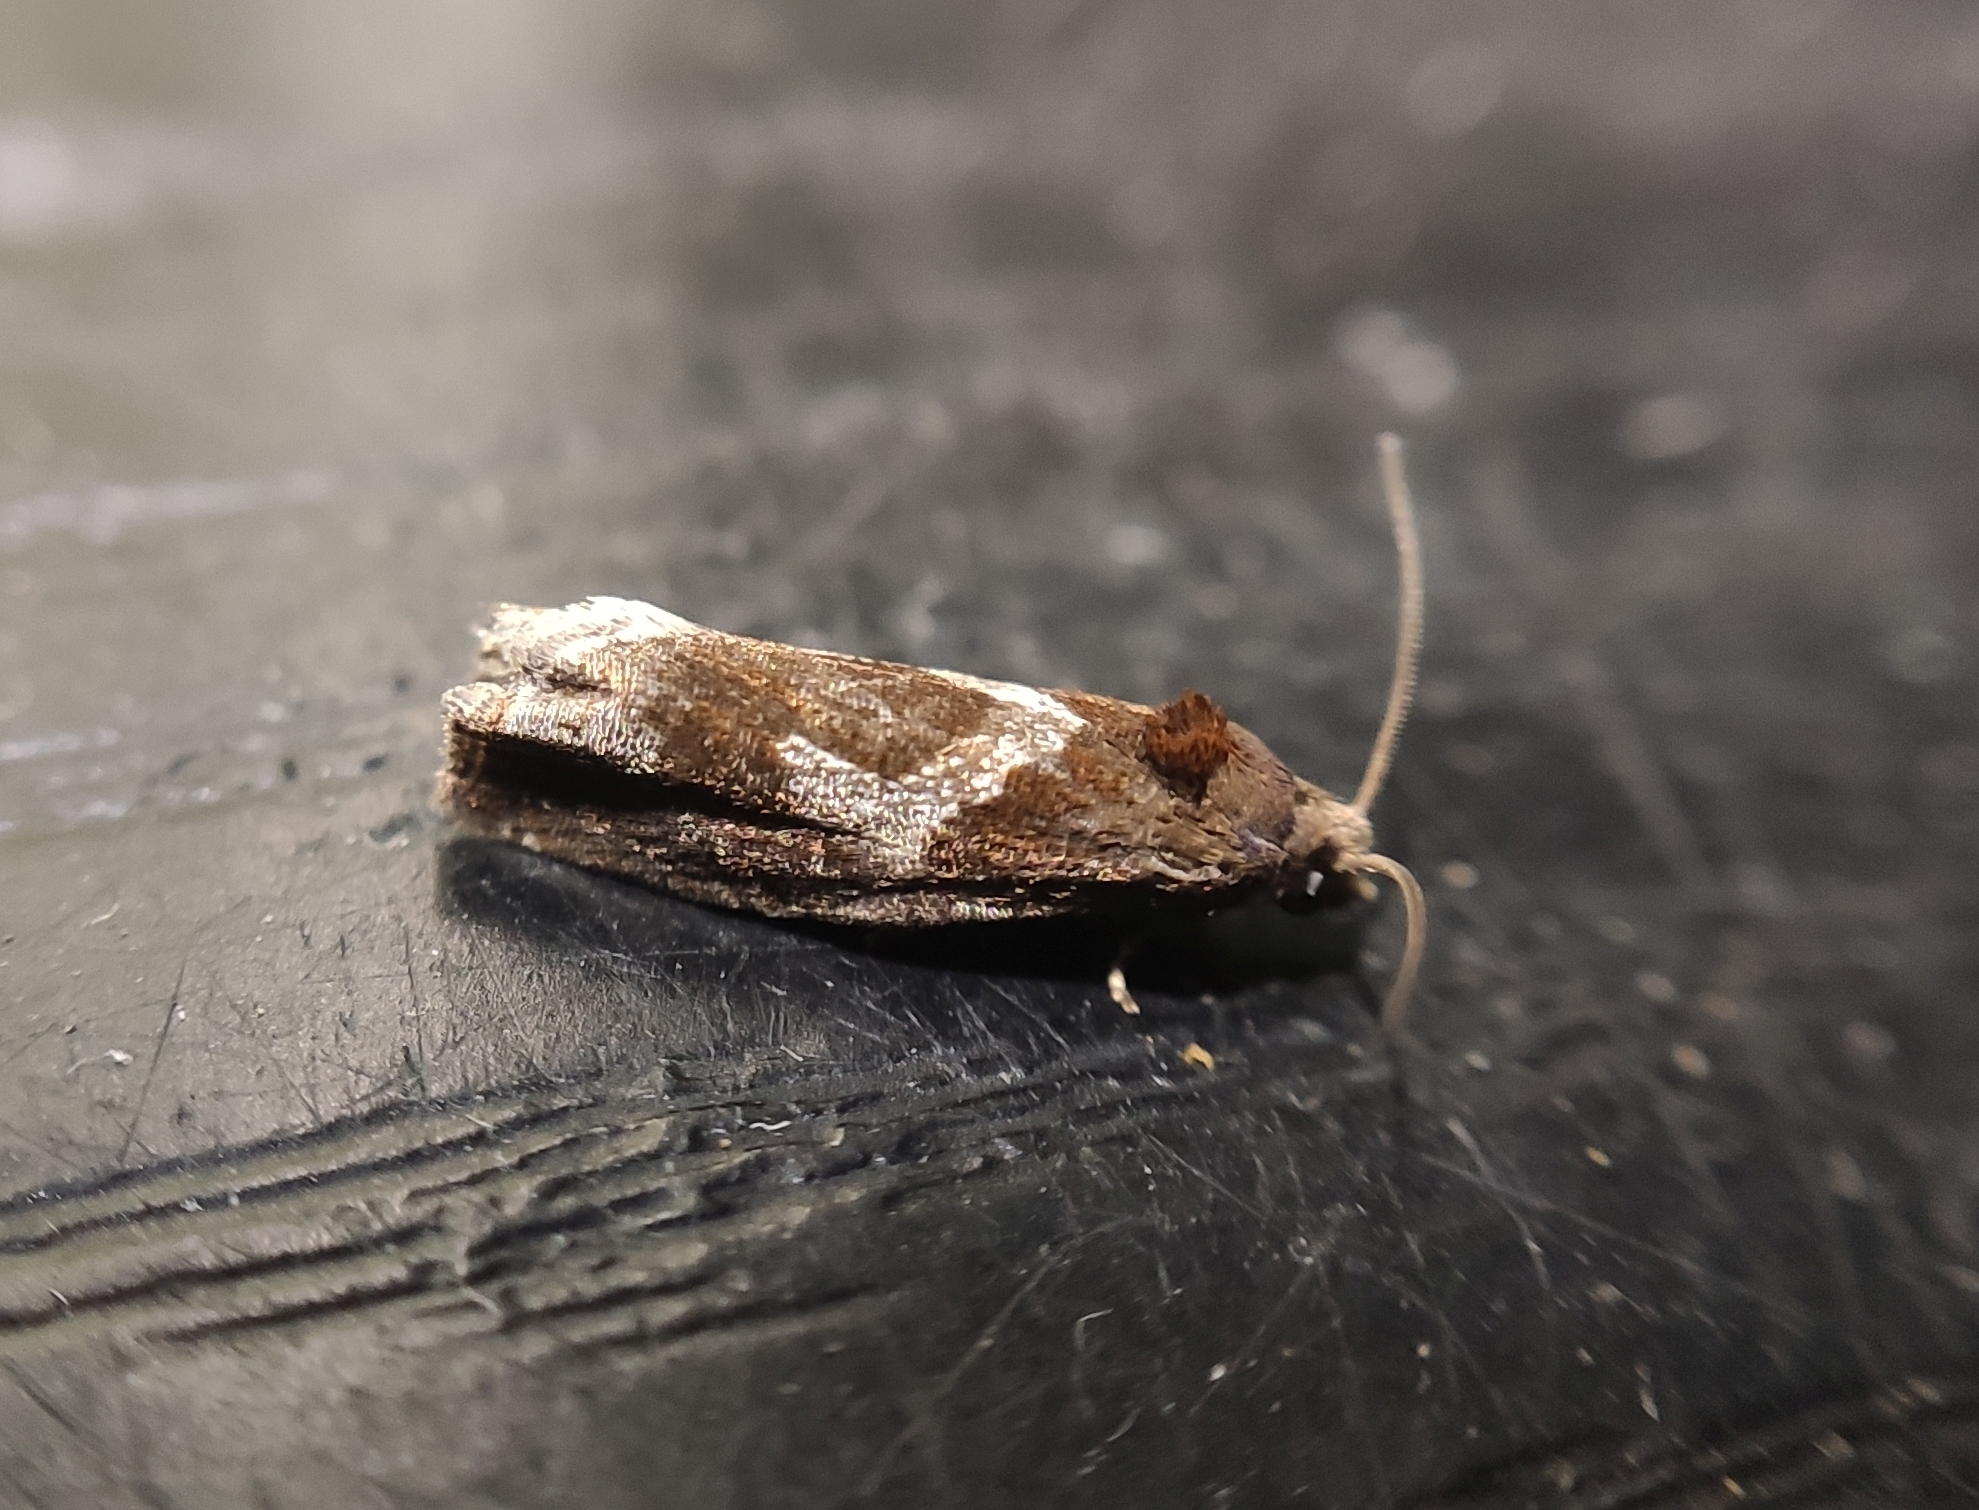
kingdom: Animalia
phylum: Arthropoda
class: Insecta
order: Lepidoptera
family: Tortricidae
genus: Epiblema
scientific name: Epiblema foenella
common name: White-foot bell
